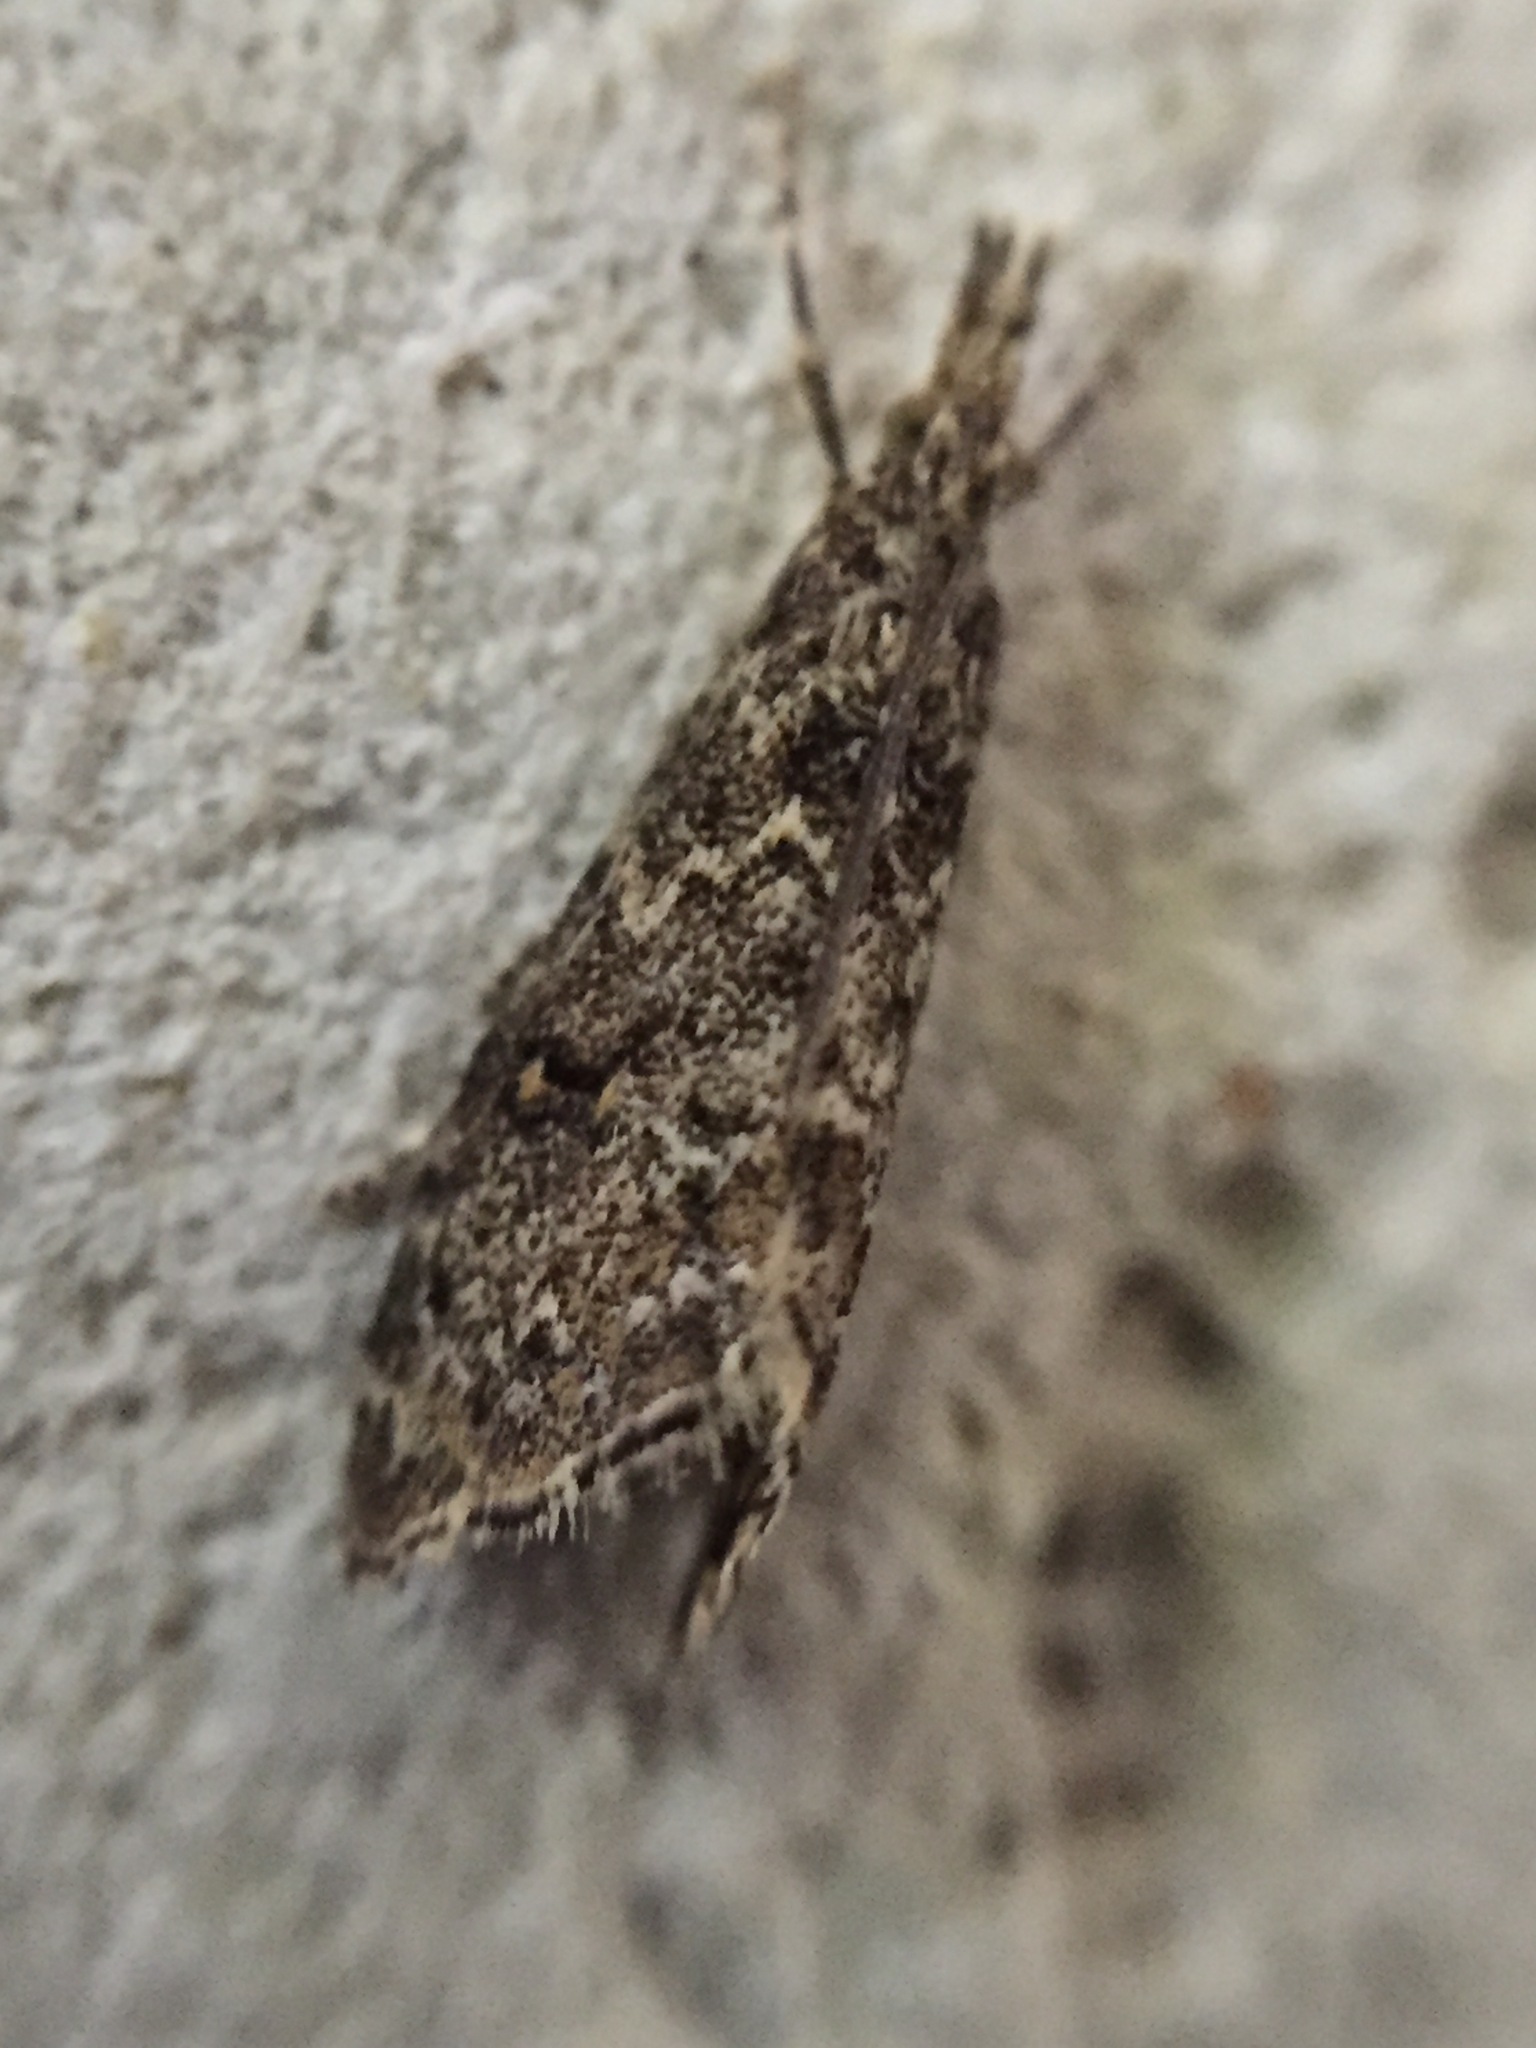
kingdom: Animalia
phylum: Arthropoda
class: Insecta
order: Lepidoptera
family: Crambidae
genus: Glaucocharis
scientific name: Glaucocharis elaina
